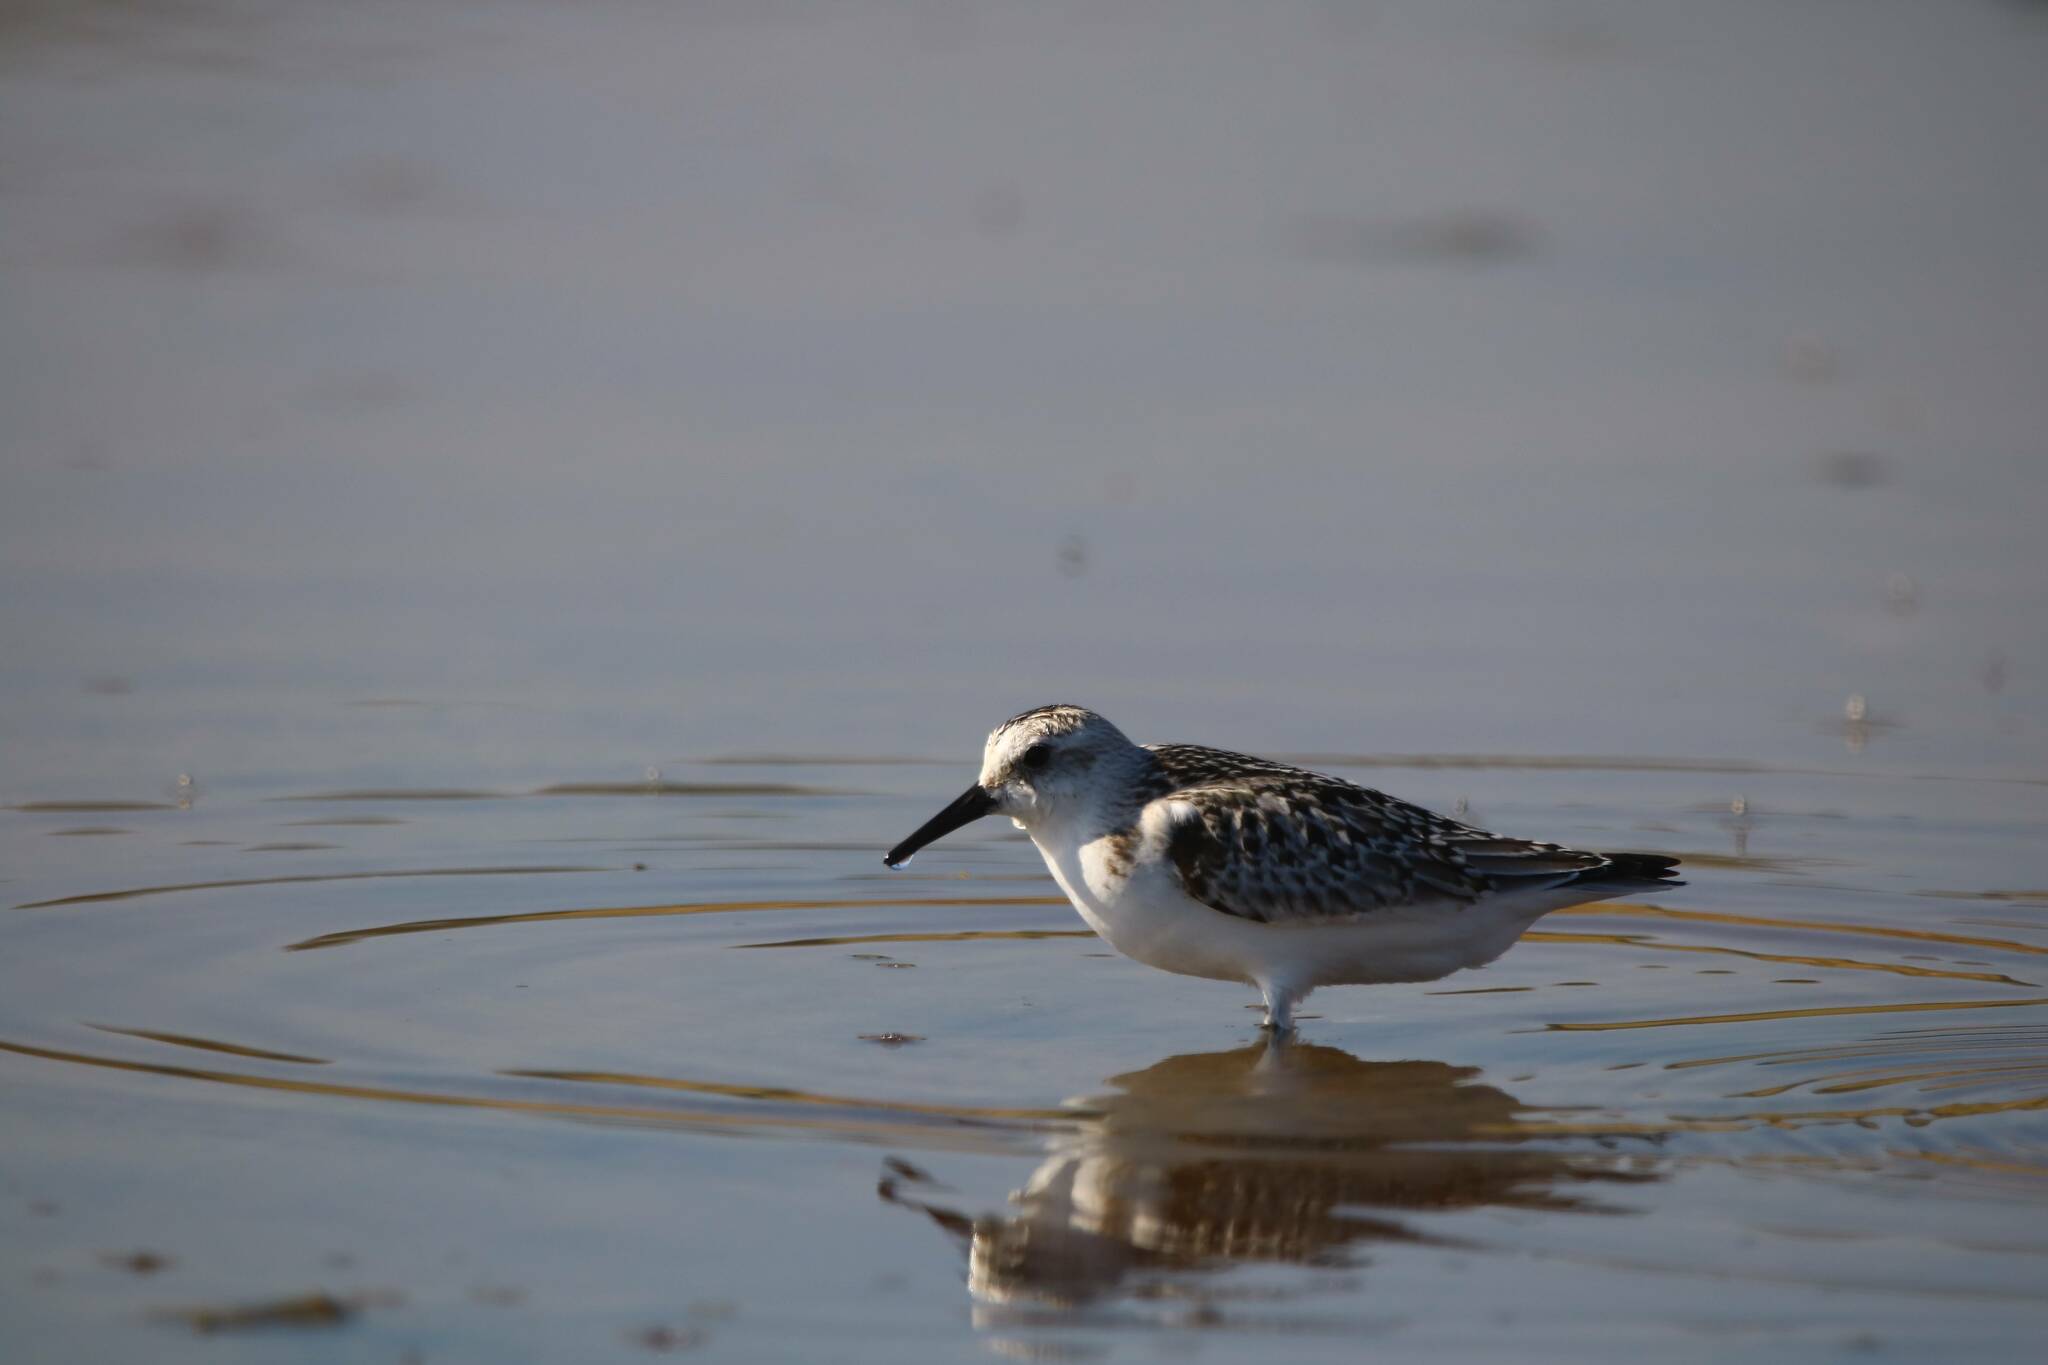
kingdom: Animalia
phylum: Chordata
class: Aves
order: Charadriiformes
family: Scolopacidae
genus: Calidris
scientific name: Calidris alba
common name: Sanderling
